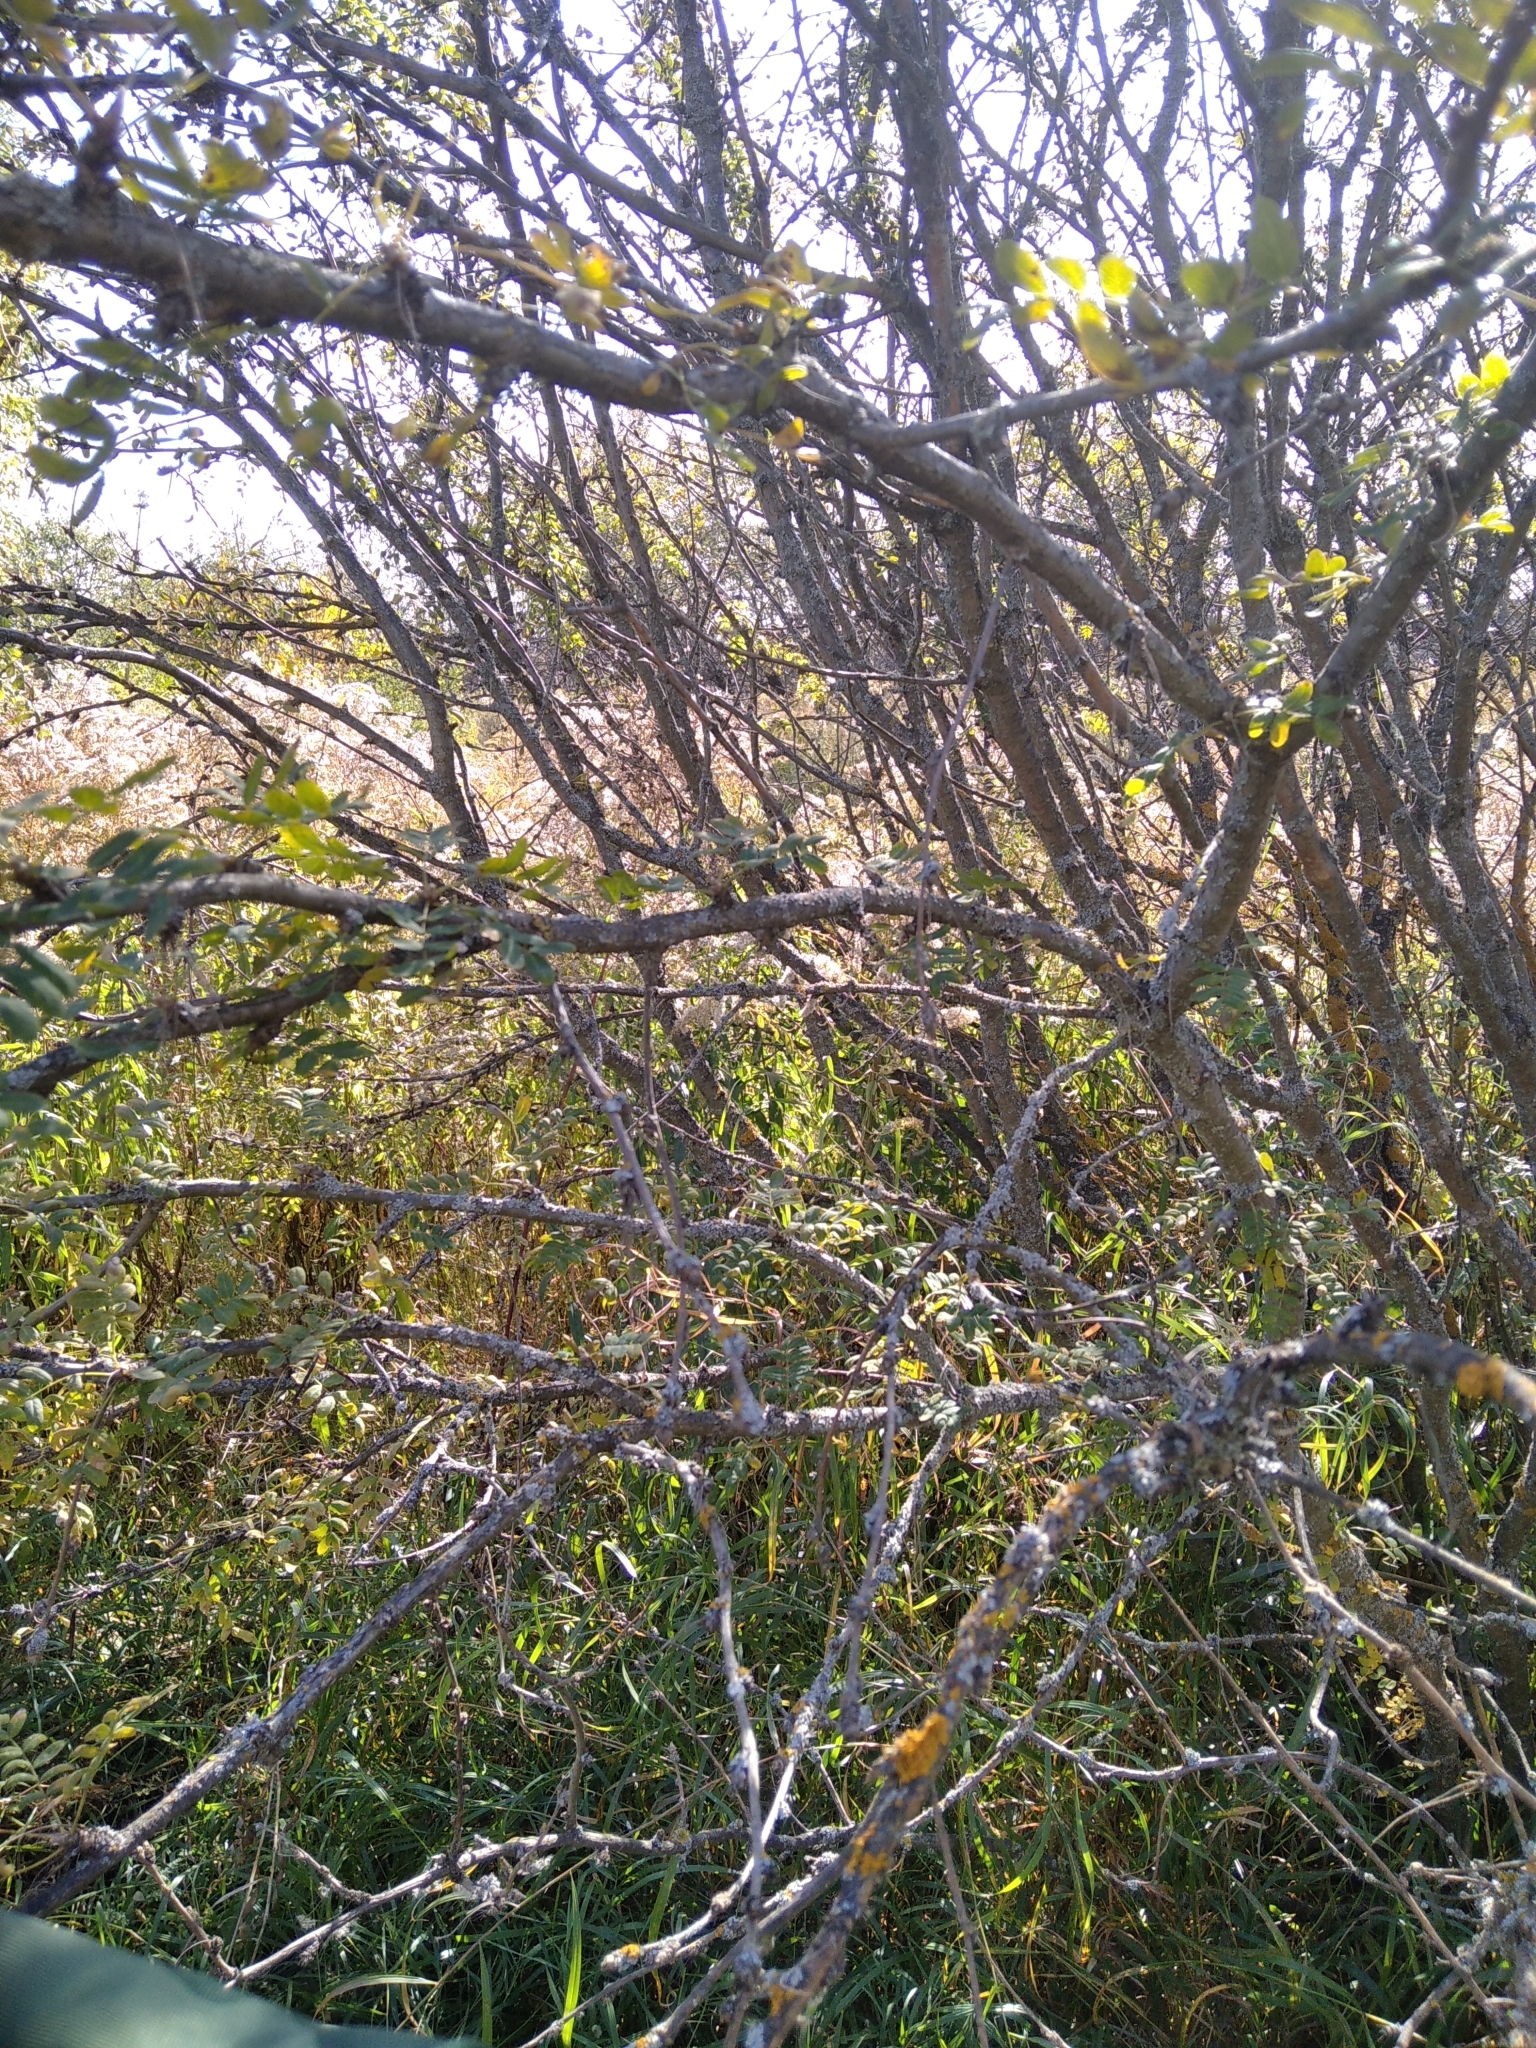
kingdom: Plantae
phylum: Tracheophyta
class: Magnoliopsida
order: Fabales
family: Fabaceae
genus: Caragana
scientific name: Caragana arborescens
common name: Siberian peashrub
